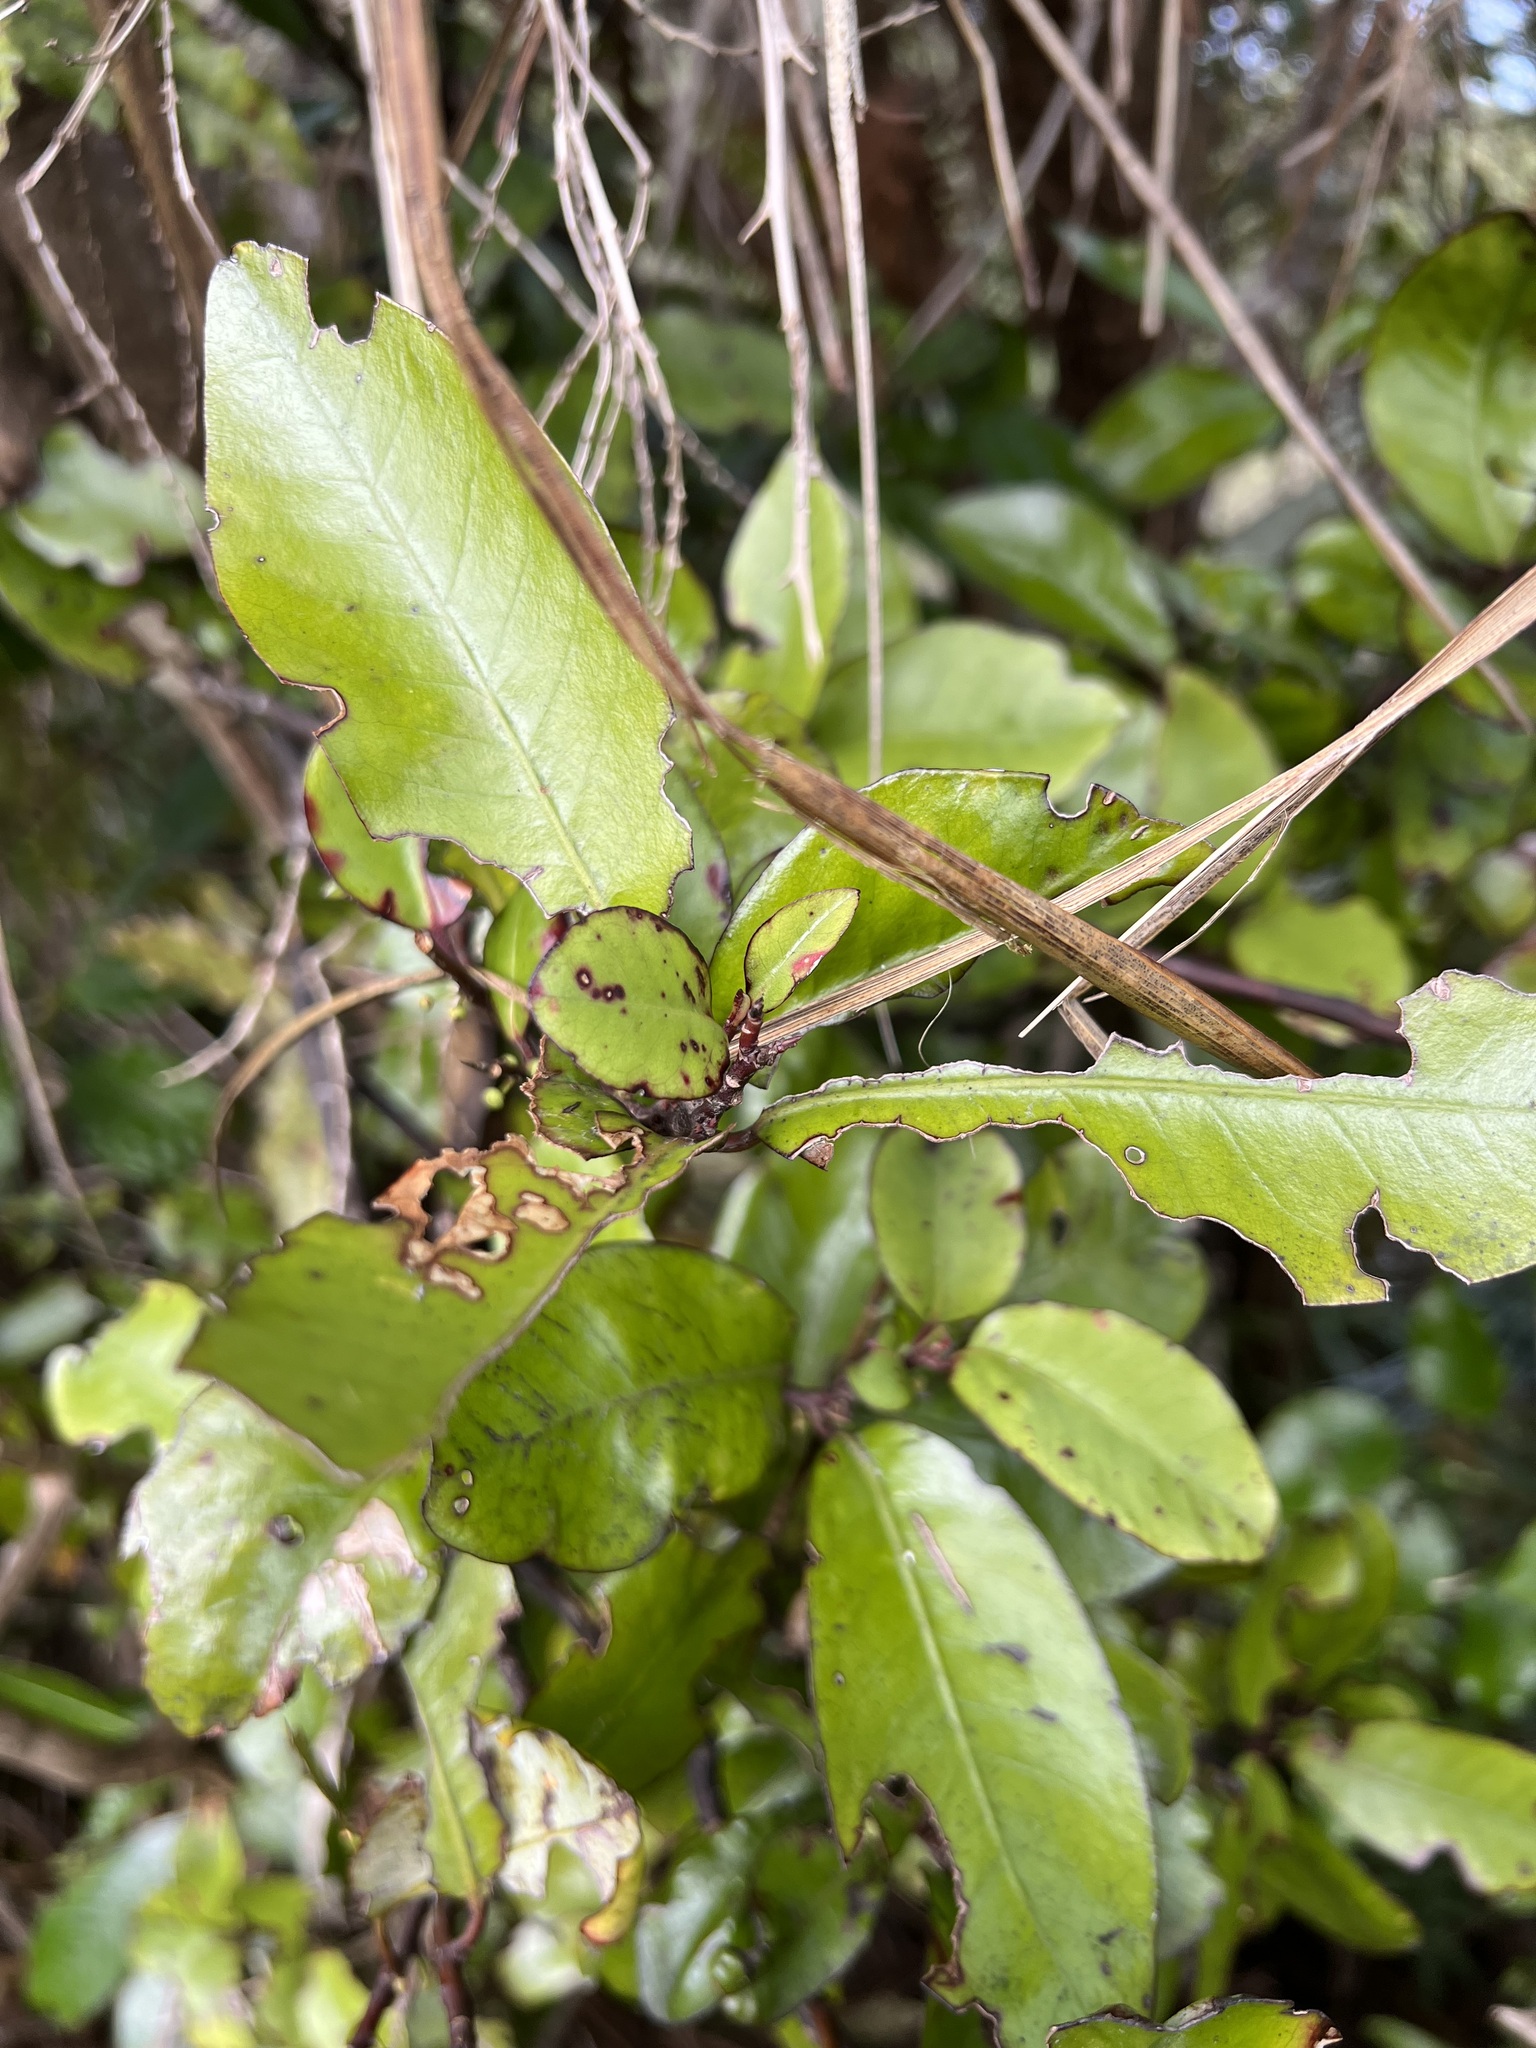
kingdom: Plantae
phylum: Tracheophyta
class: Magnoliopsida
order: Canellales
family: Winteraceae
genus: Pseudowintera
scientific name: Pseudowintera colorata
